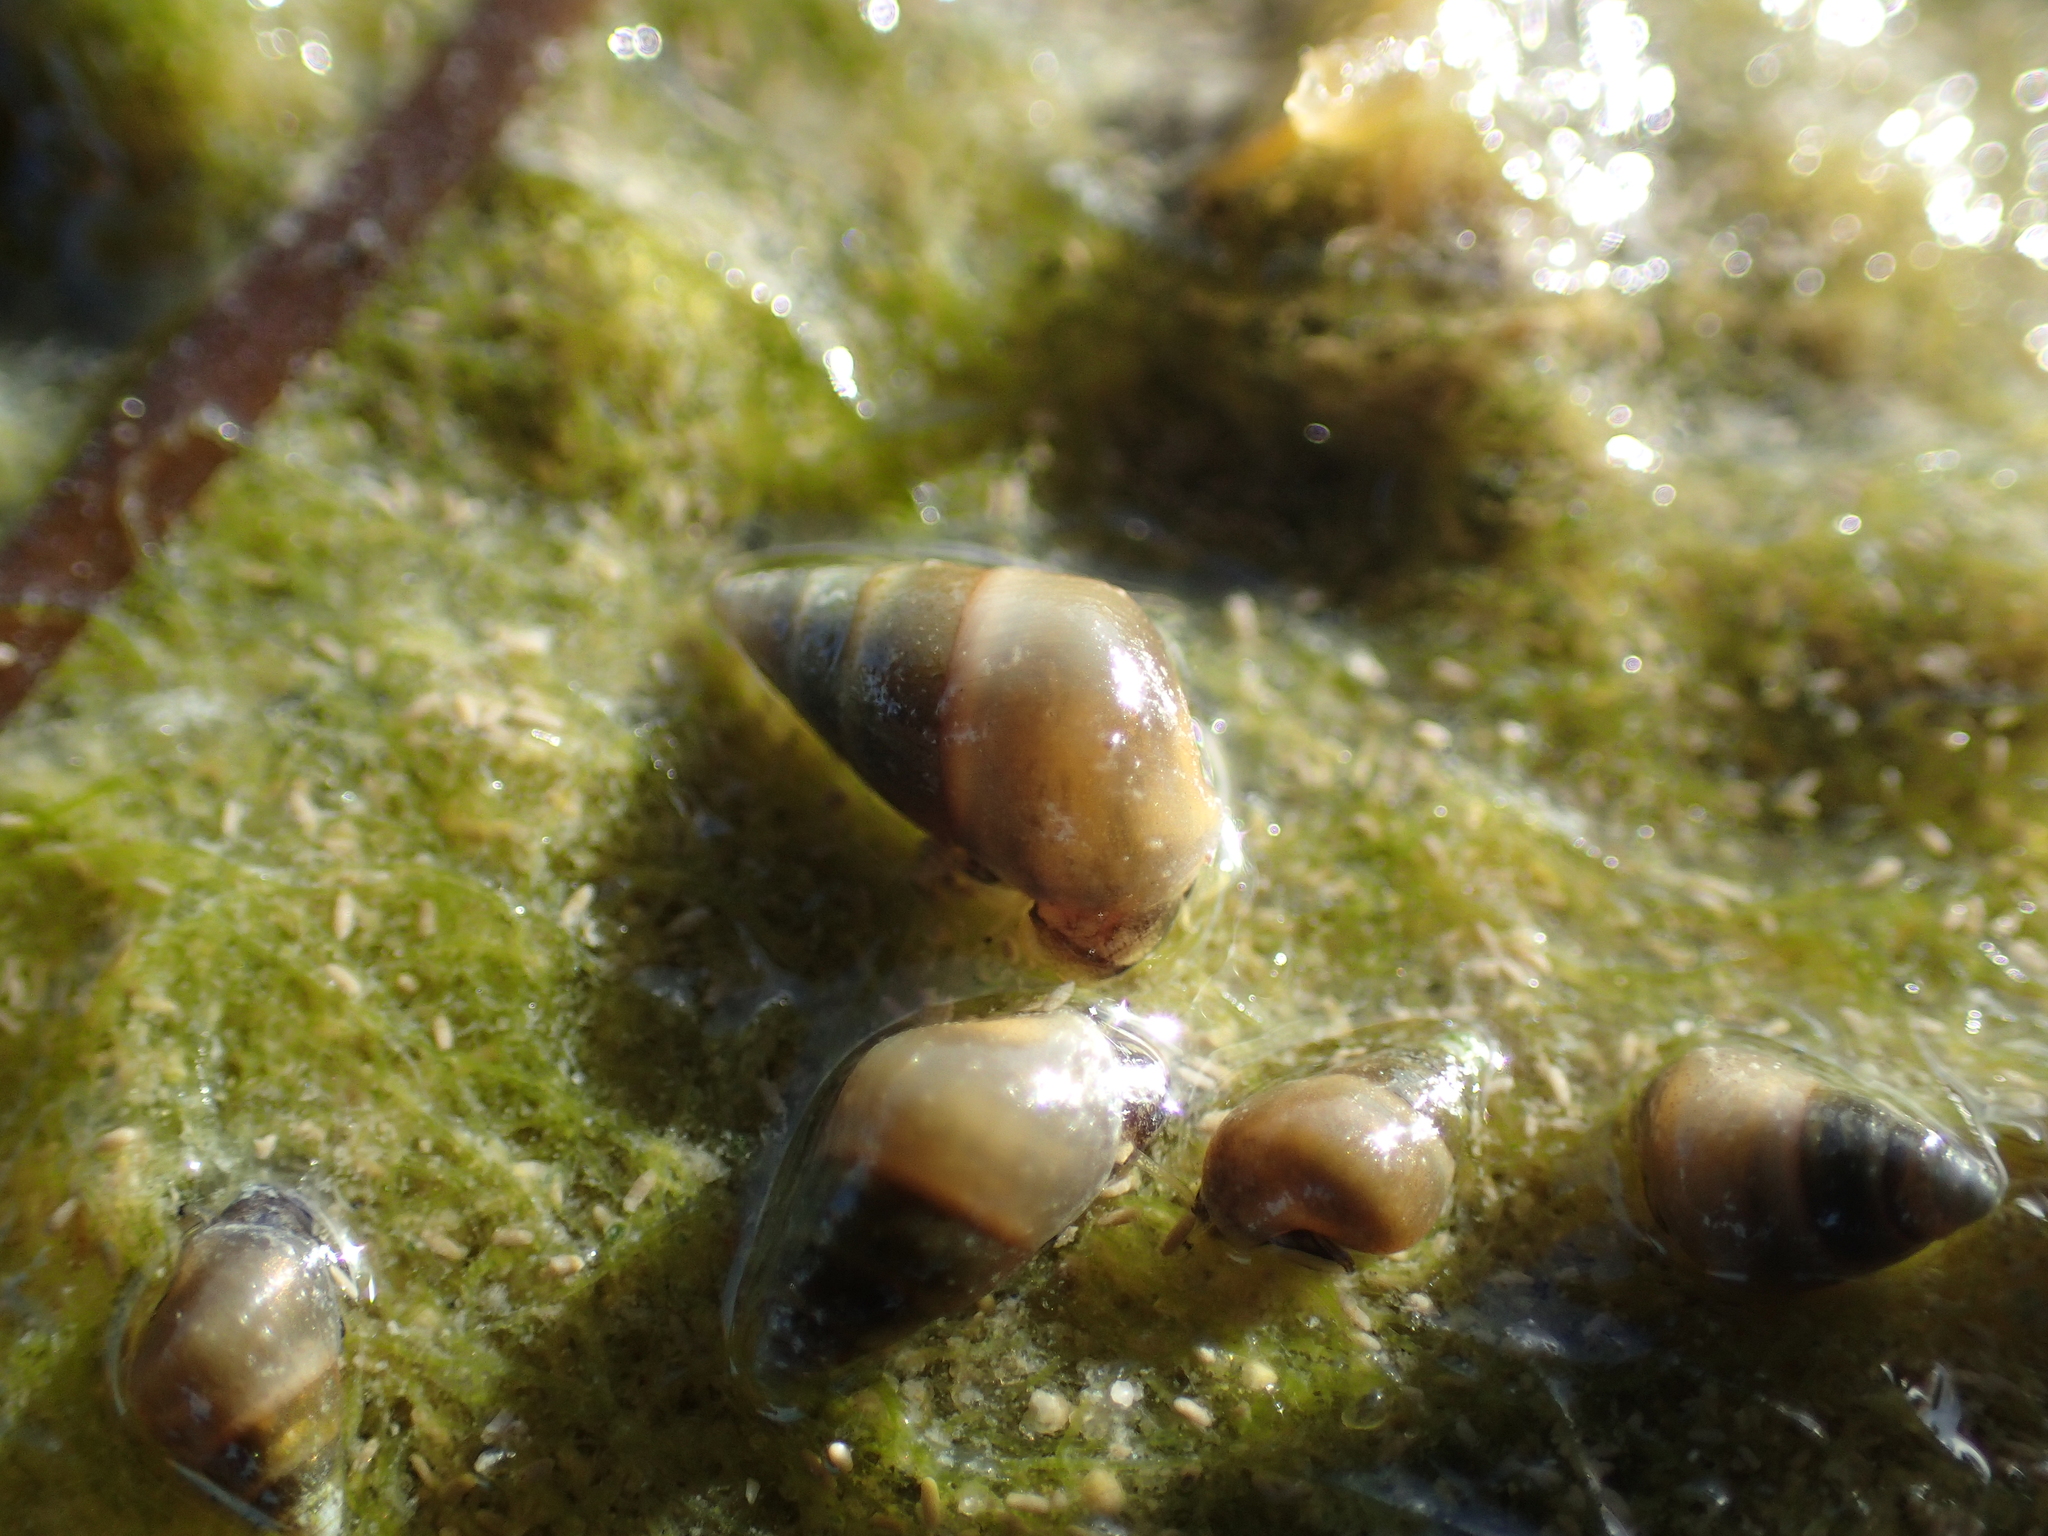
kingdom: Animalia
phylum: Mollusca
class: Gastropoda
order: Littorinimorpha
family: Hydrobiidae
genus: Peringia
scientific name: Peringia ulvae
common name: Laver spire shell
